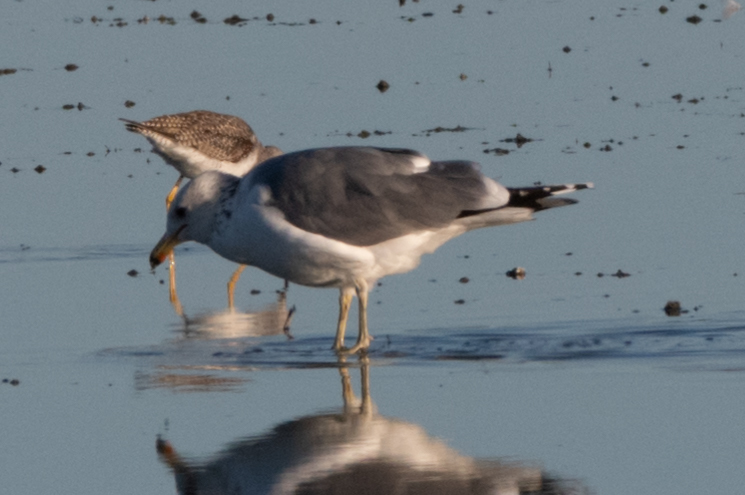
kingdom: Animalia
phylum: Chordata
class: Aves
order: Charadriiformes
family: Laridae
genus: Larus
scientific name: Larus californicus
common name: California gull
